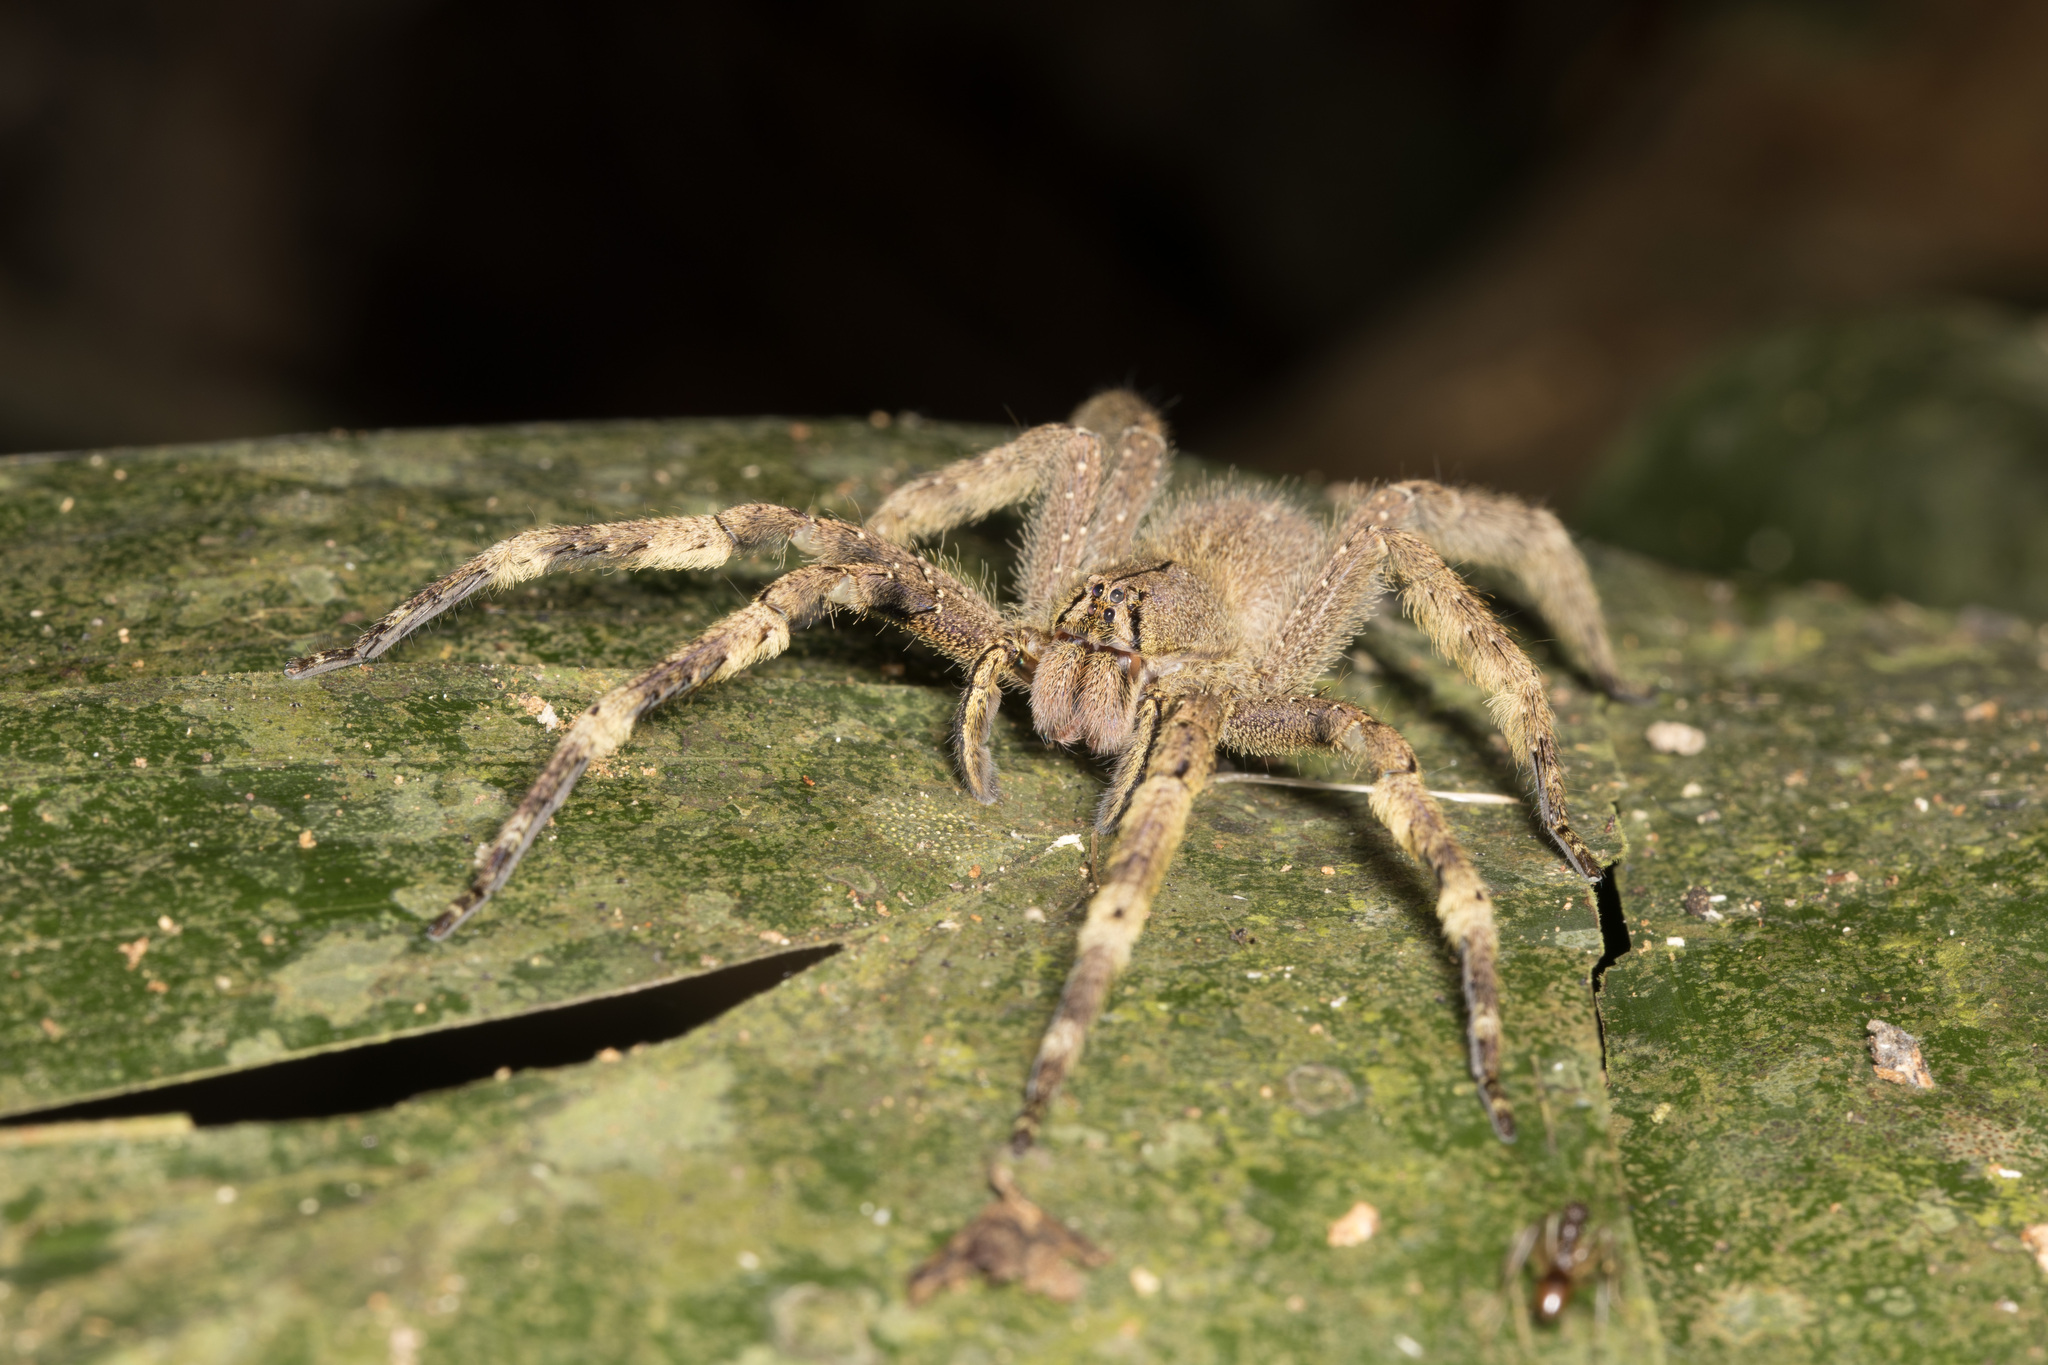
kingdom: Animalia
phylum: Arthropoda
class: Arachnida
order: Araneae
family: Ctenidae
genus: Phoneutria
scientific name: Phoneutria fera
